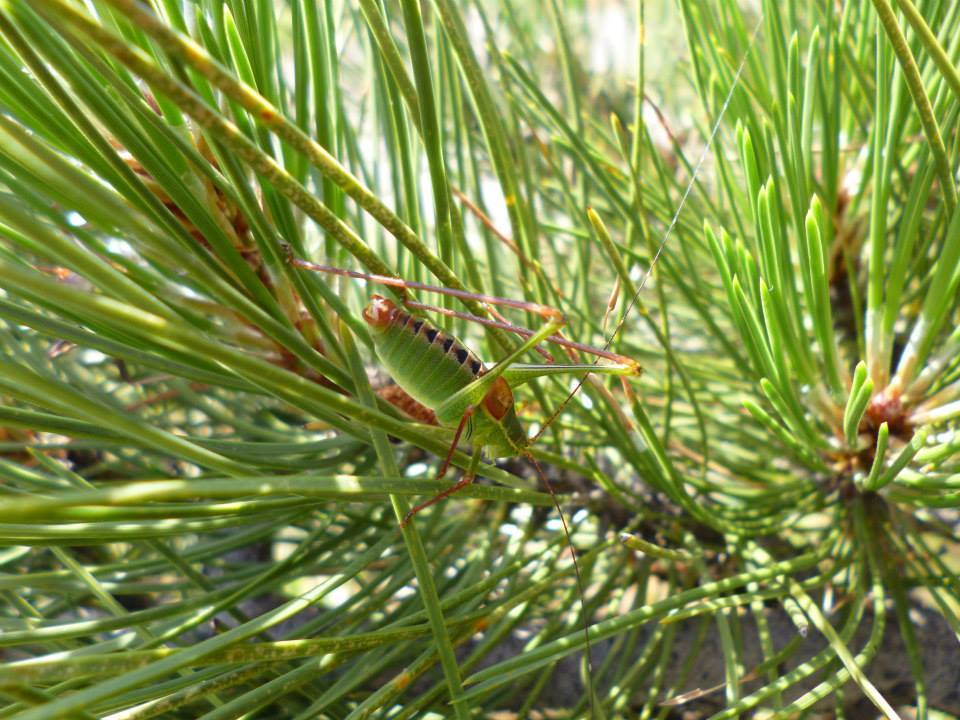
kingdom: Animalia
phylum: Arthropoda
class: Insecta
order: Orthoptera
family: Tettigoniidae
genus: Leptophyes
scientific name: Leptophyes laticauda
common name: Long-tailed speckled bush-cricket
